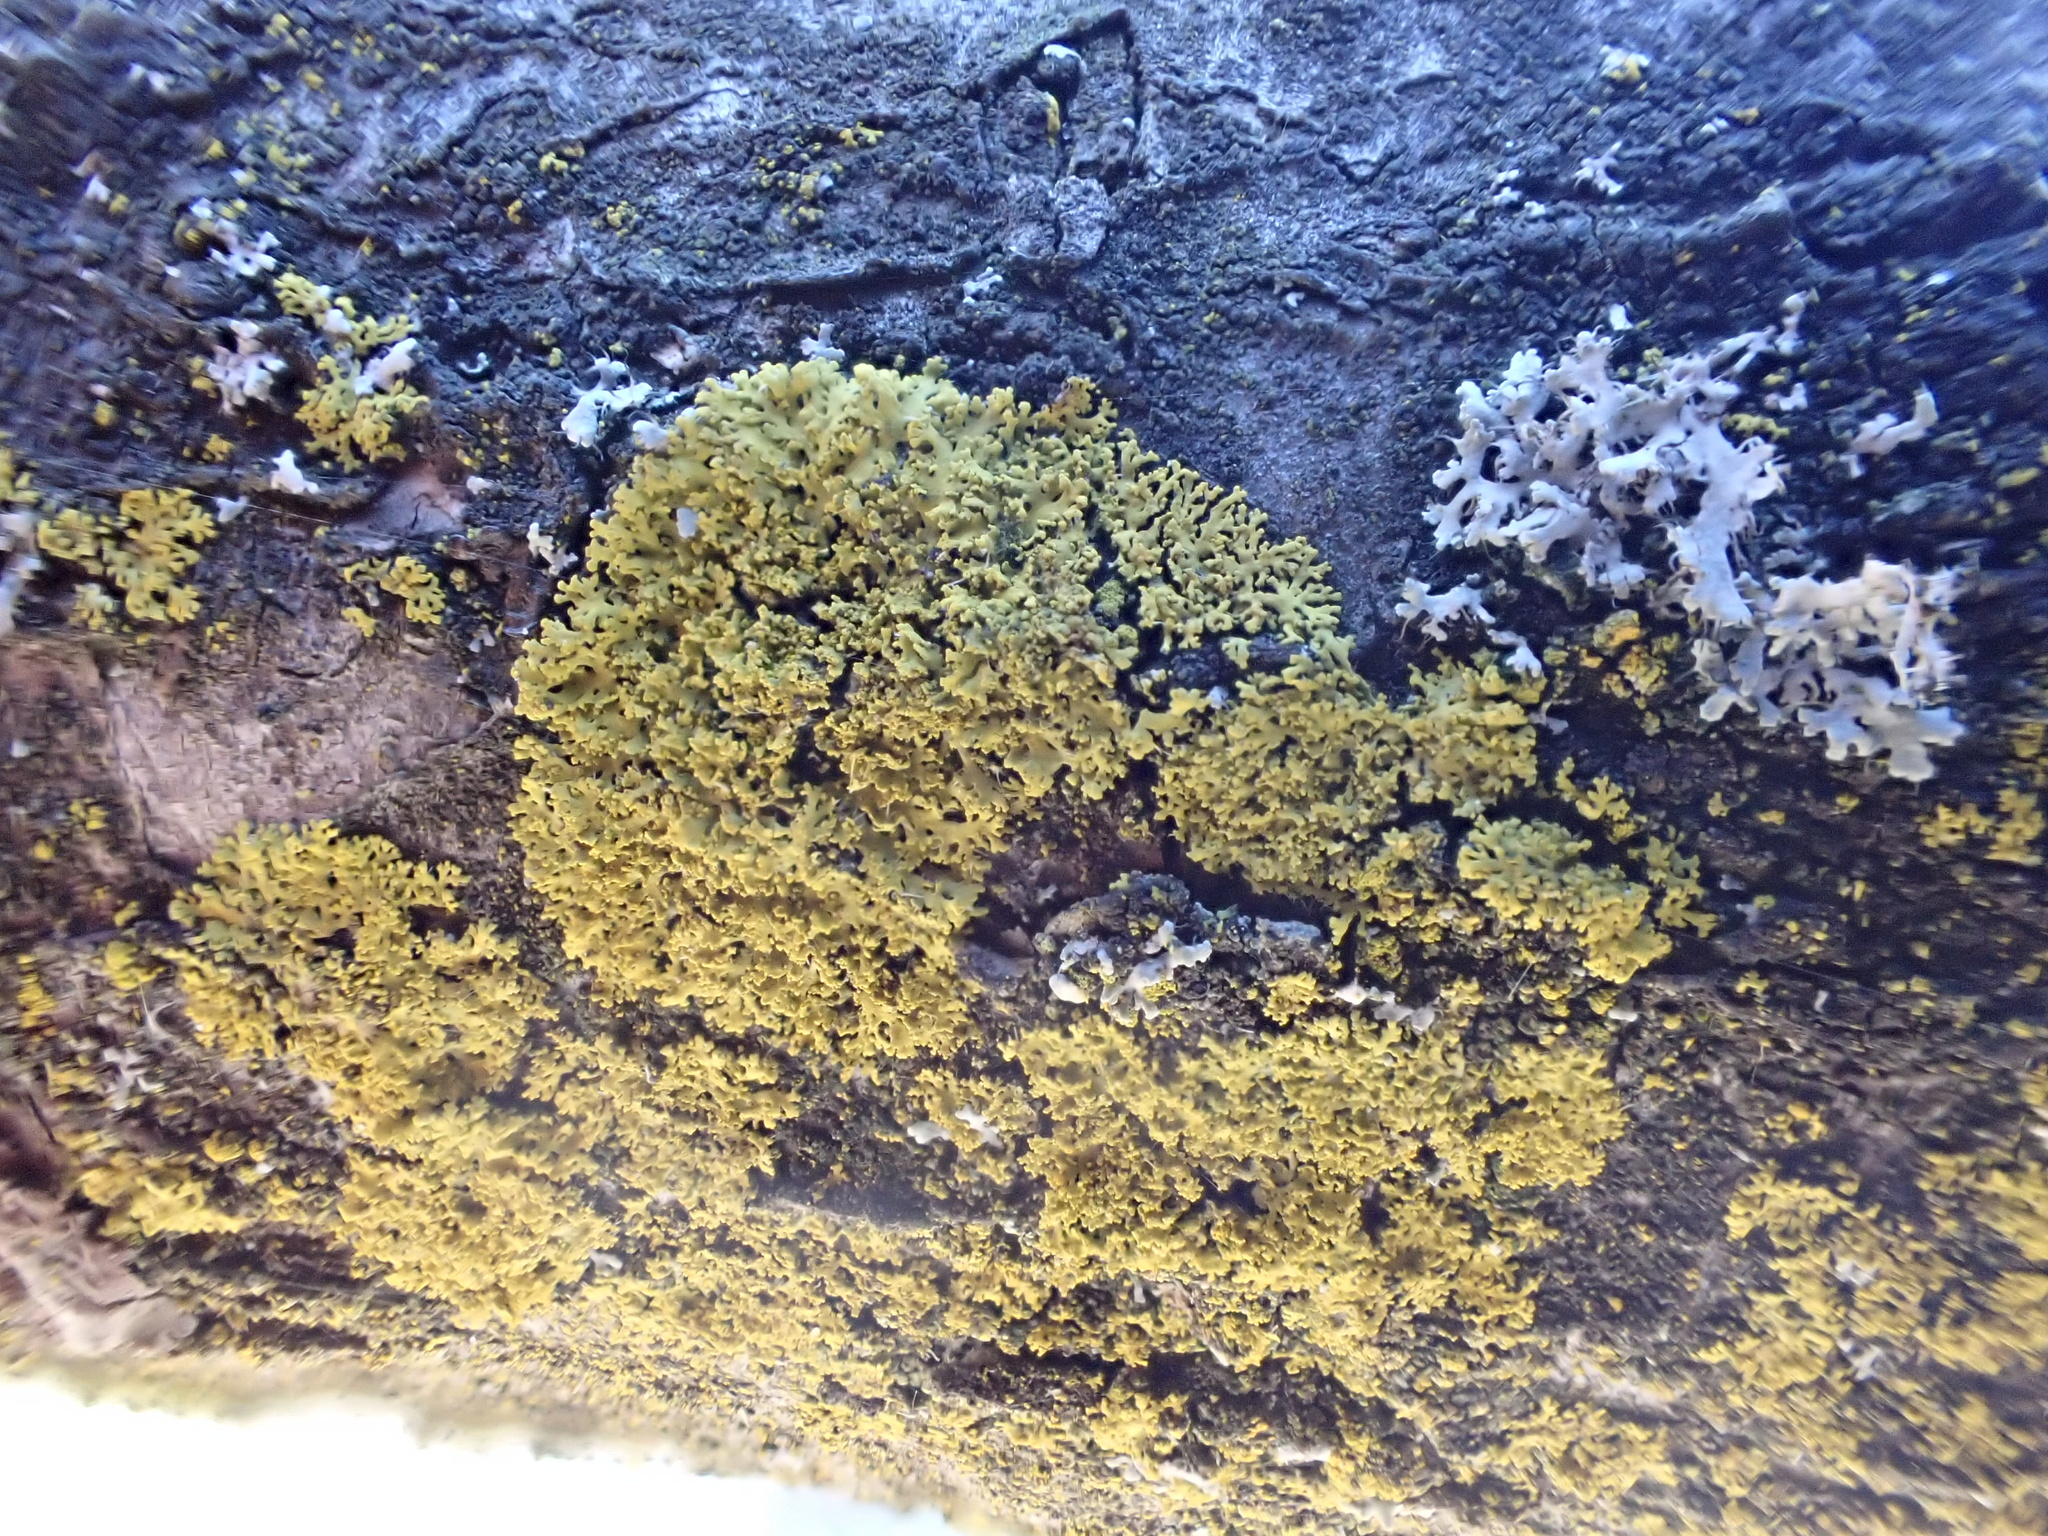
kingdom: Fungi
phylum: Ascomycota
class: Candelariomycetes
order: Candelariales
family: Candelariaceae
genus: Candelaria
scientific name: Candelaria concolor
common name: Candleflame lichen
